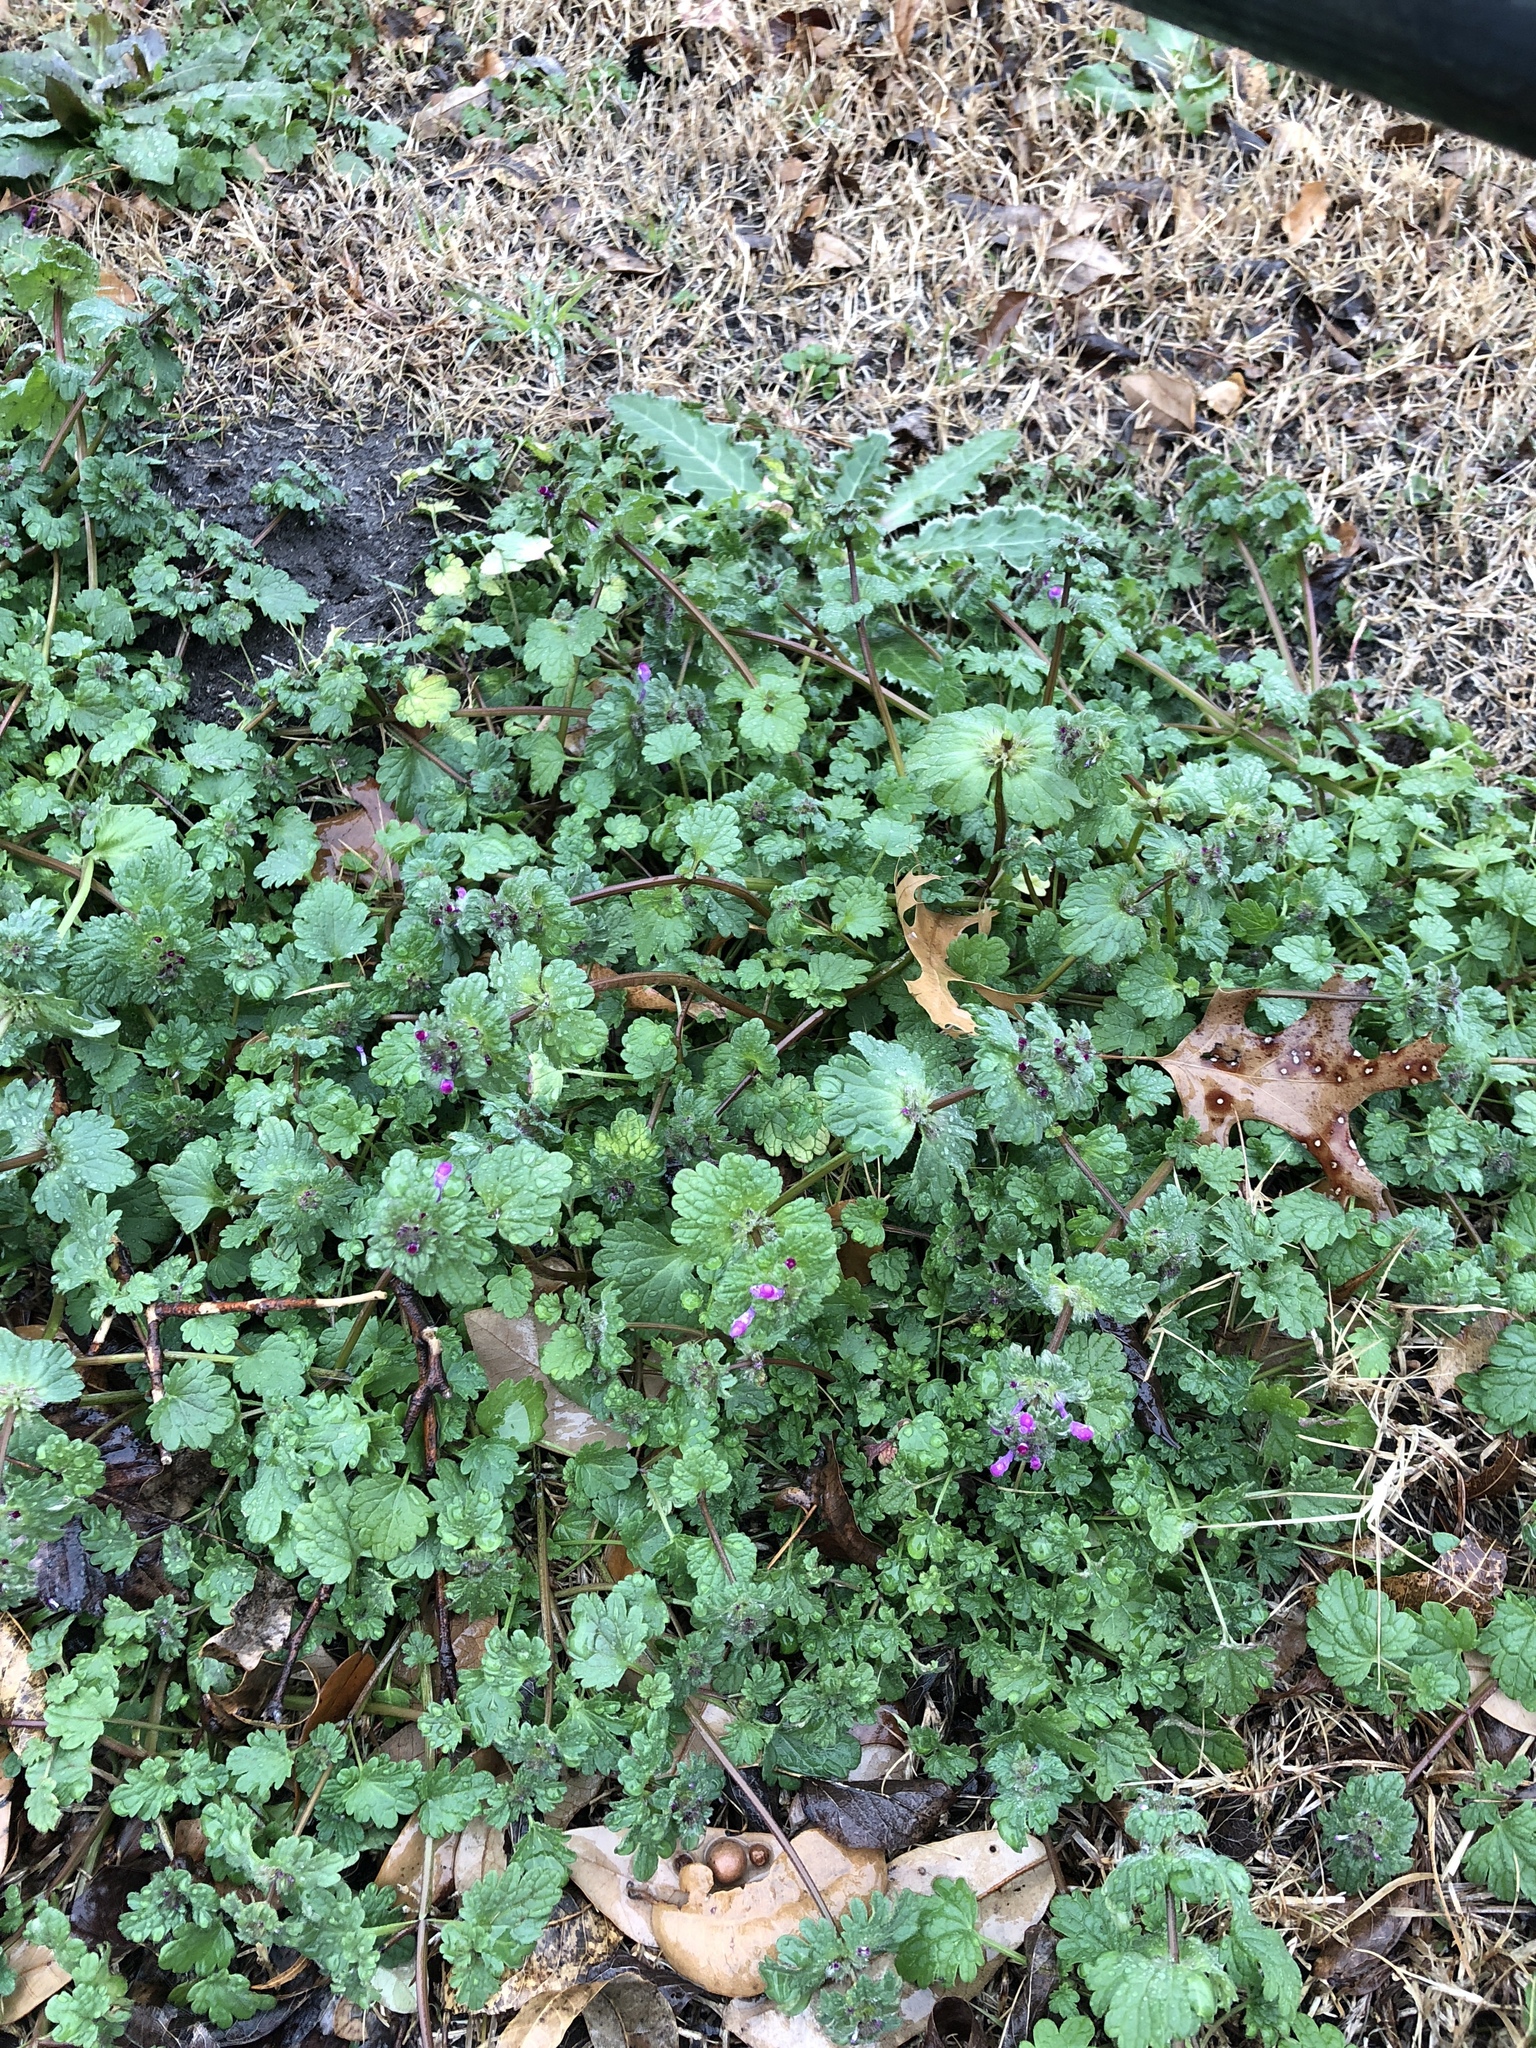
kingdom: Plantae
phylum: Tracheophyta
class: Magnoliopsida
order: Lamiales
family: Lamiaceae
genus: Lamium
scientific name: Lamium amplexicaule
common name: Henbit dead-nettle
